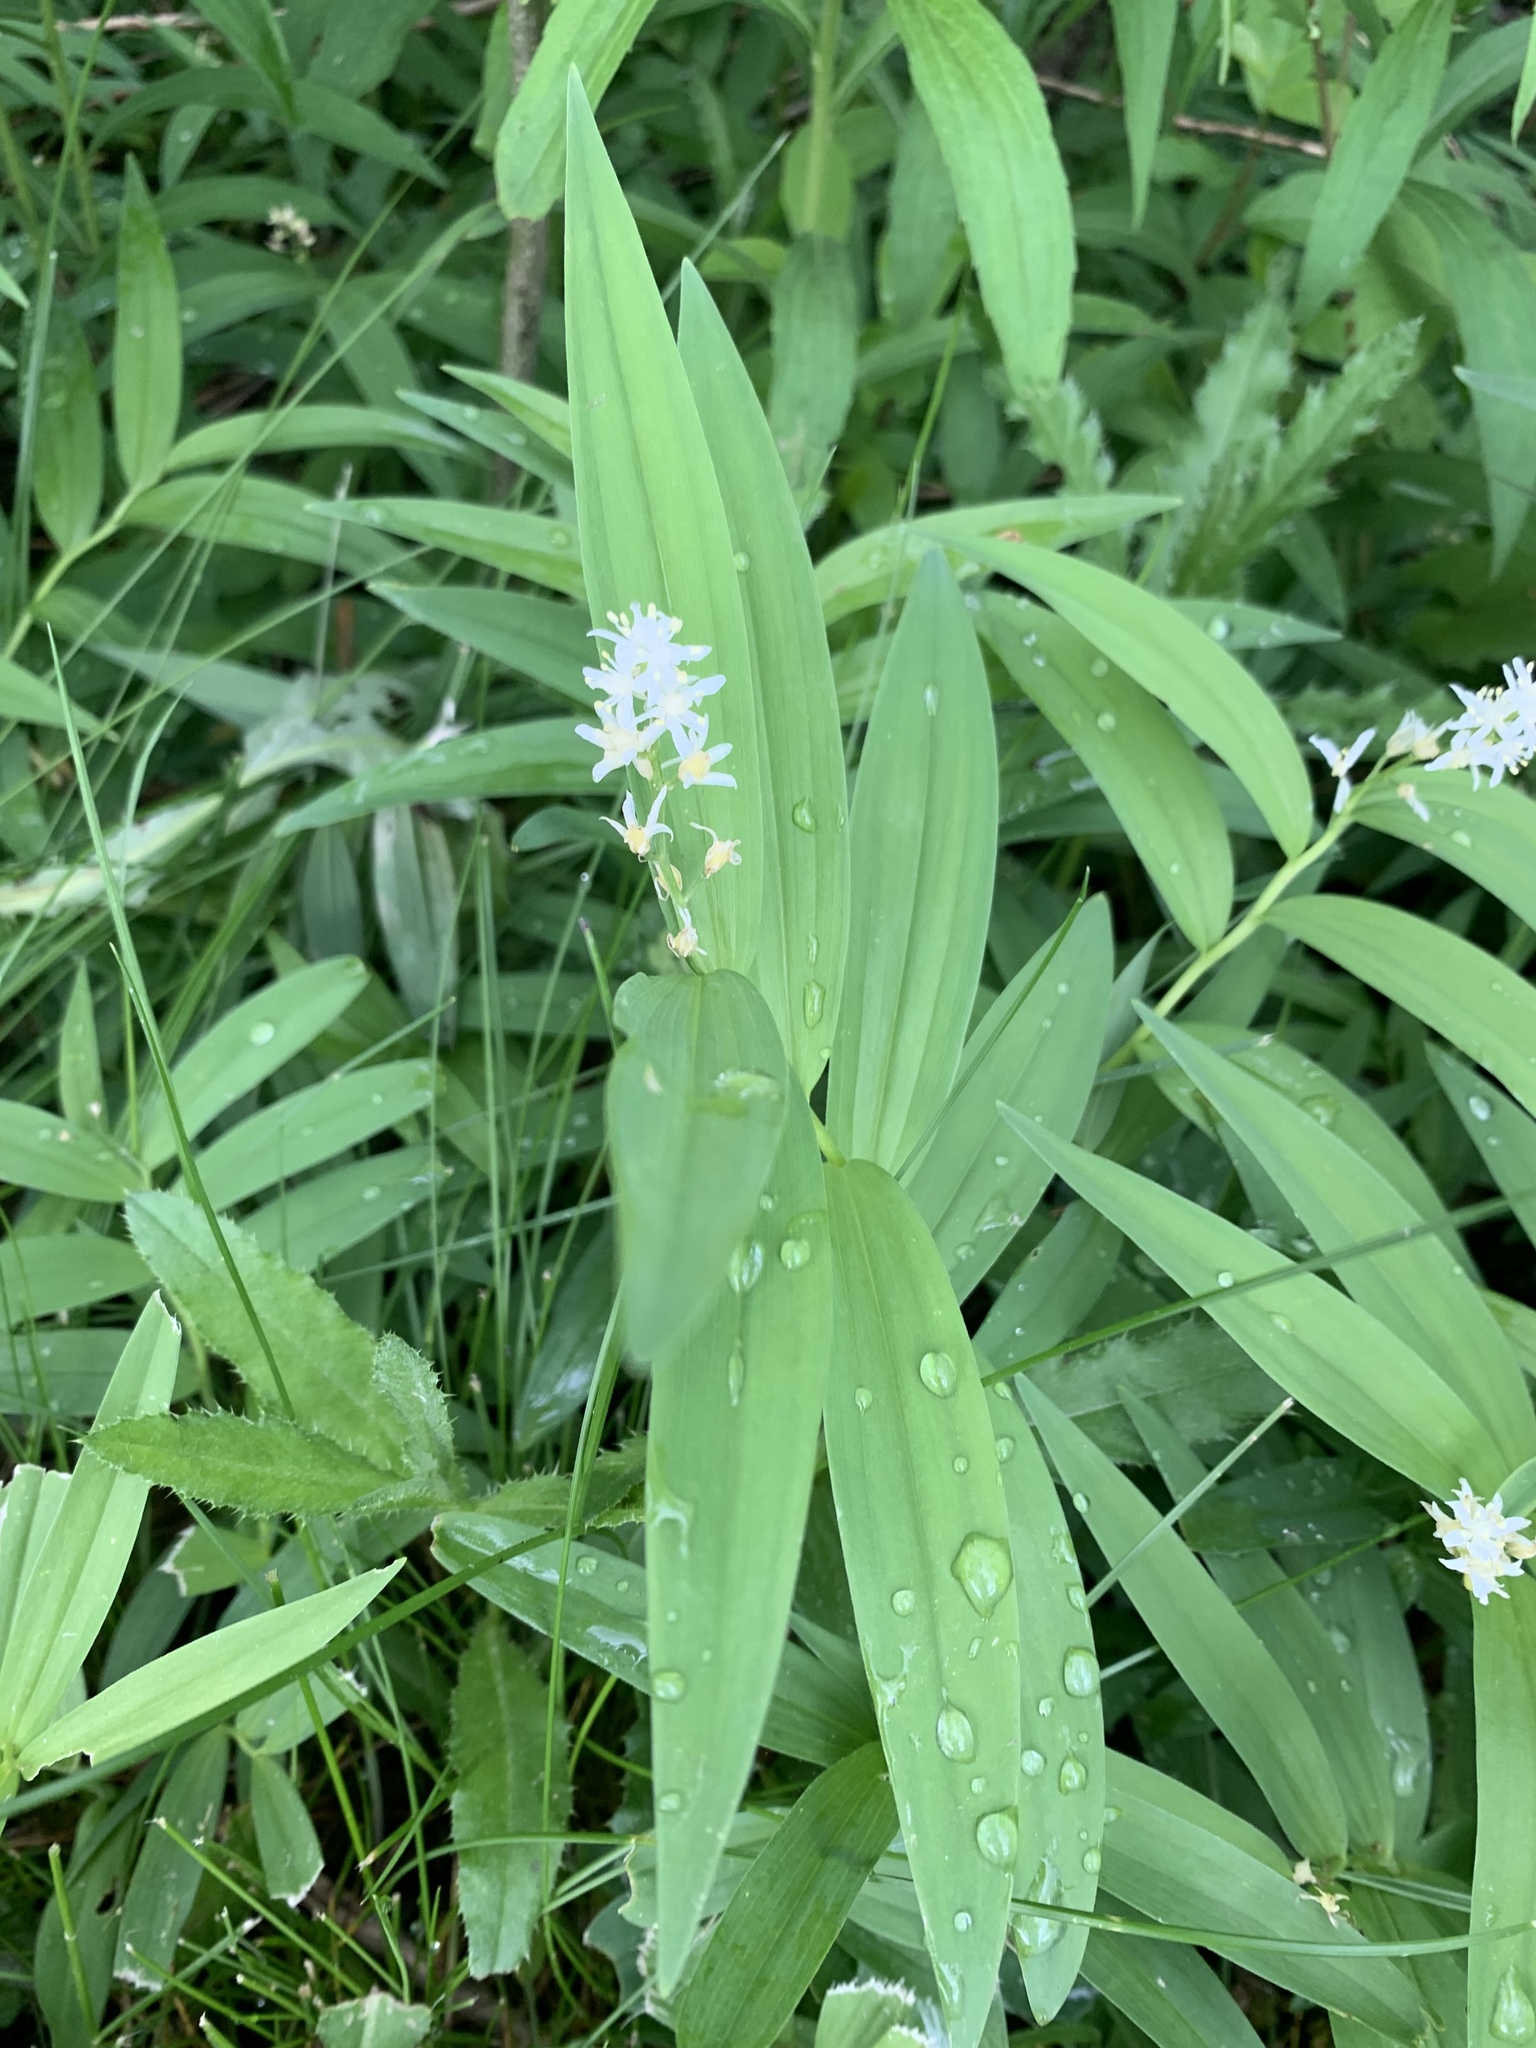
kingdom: Plantae
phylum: Tracheophyta
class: Liliopsida
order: Asparagales
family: Asparagaceae
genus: Maianthemum
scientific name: Maianthemum stellatum
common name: Little false solomon's seal
